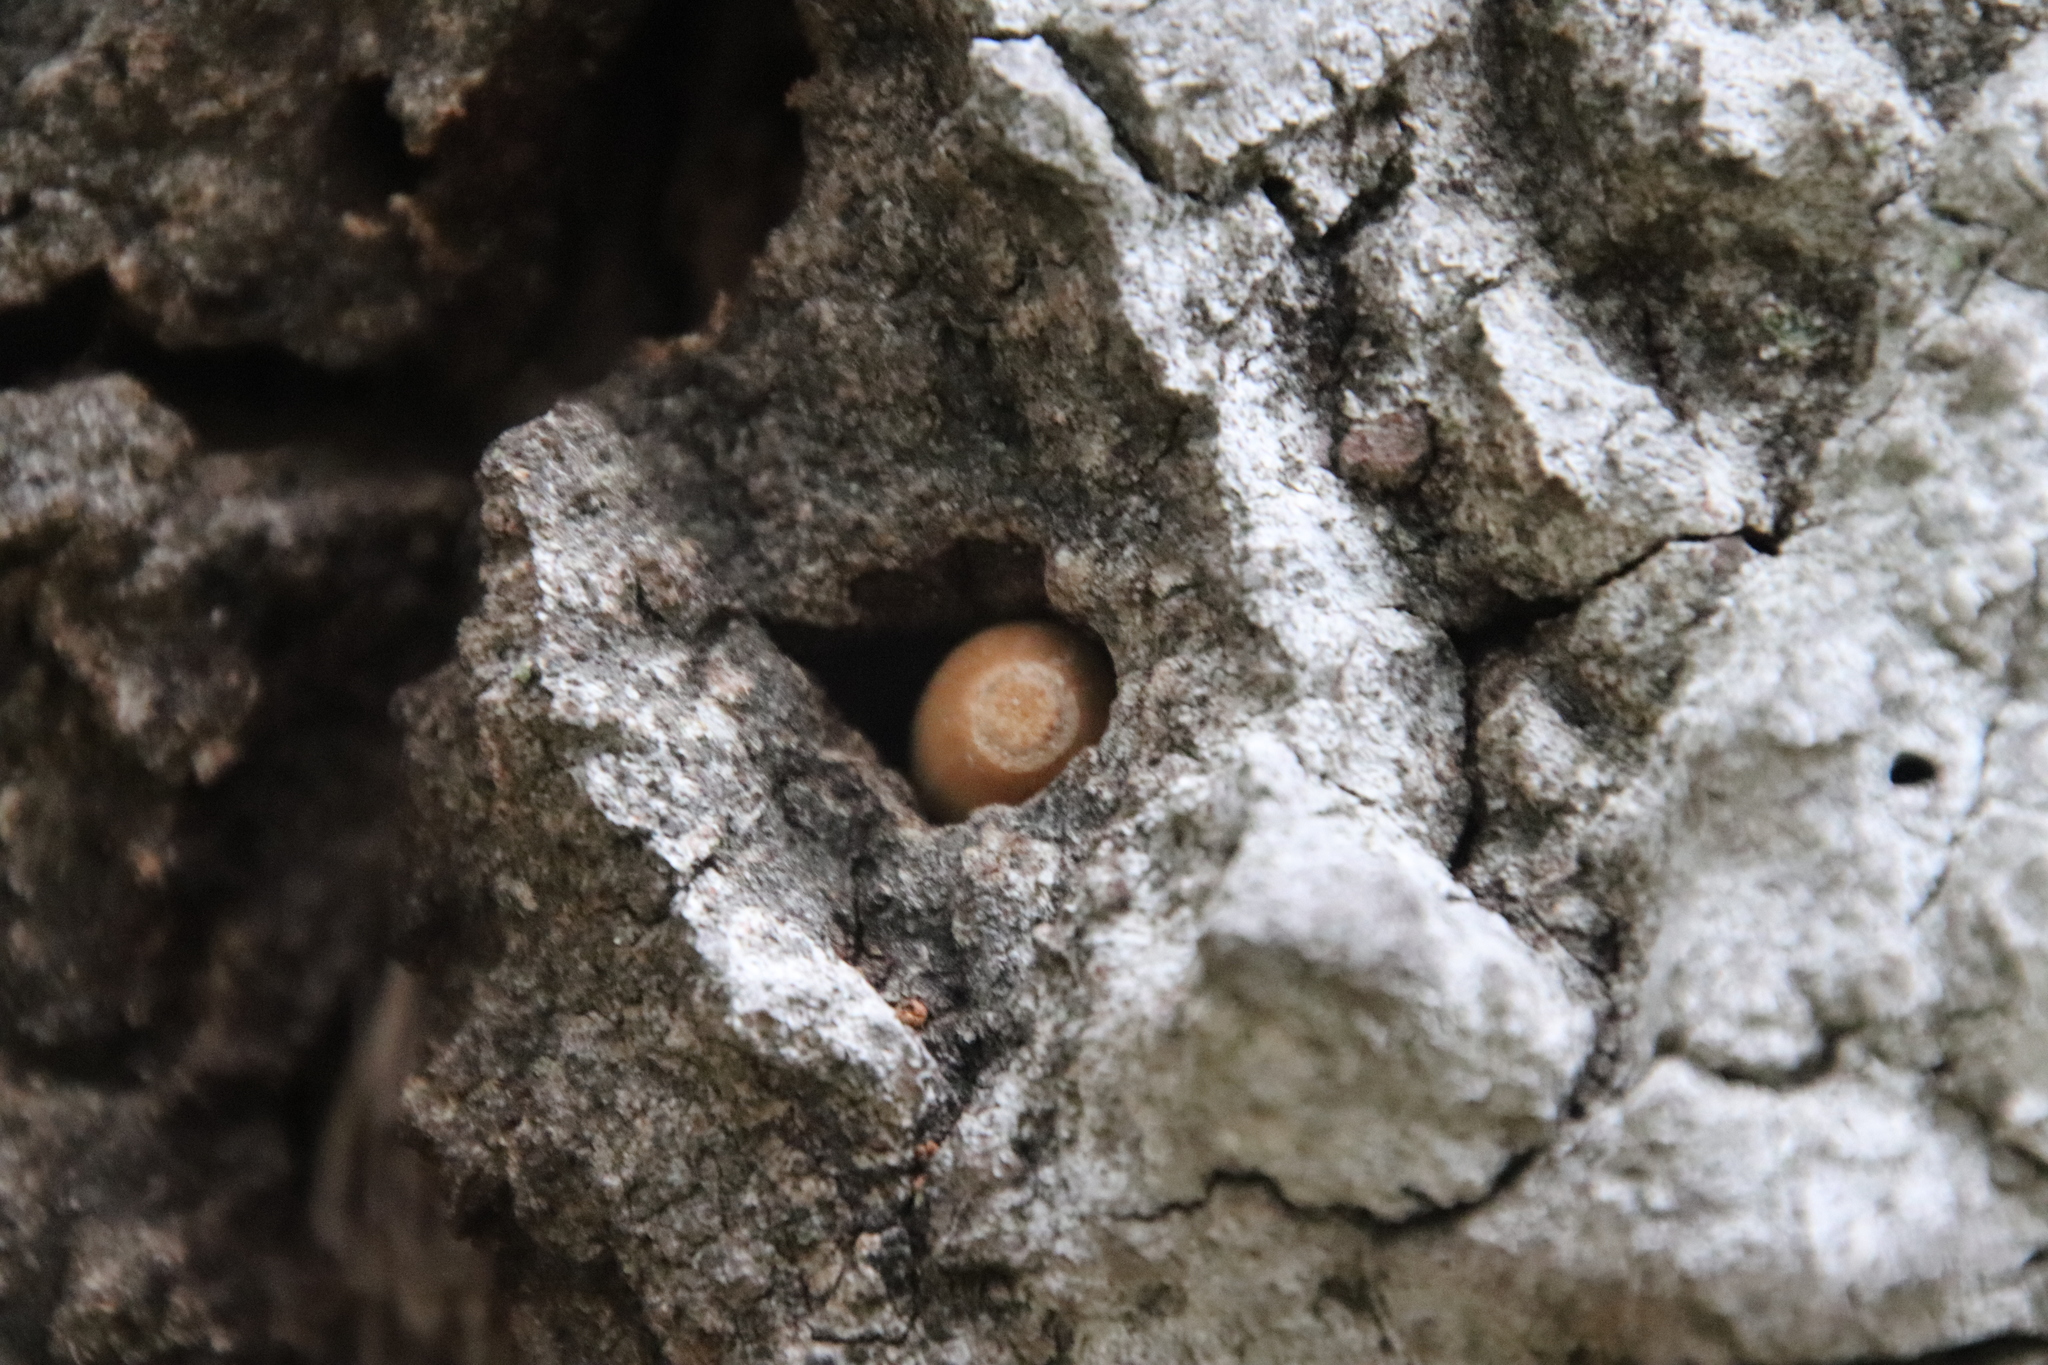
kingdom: Animalia
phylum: Chordata
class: Aves
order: Piciformes
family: Picidae
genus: Melanerpes
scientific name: Melanerpes formicivorus
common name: Acorn woodpecker
